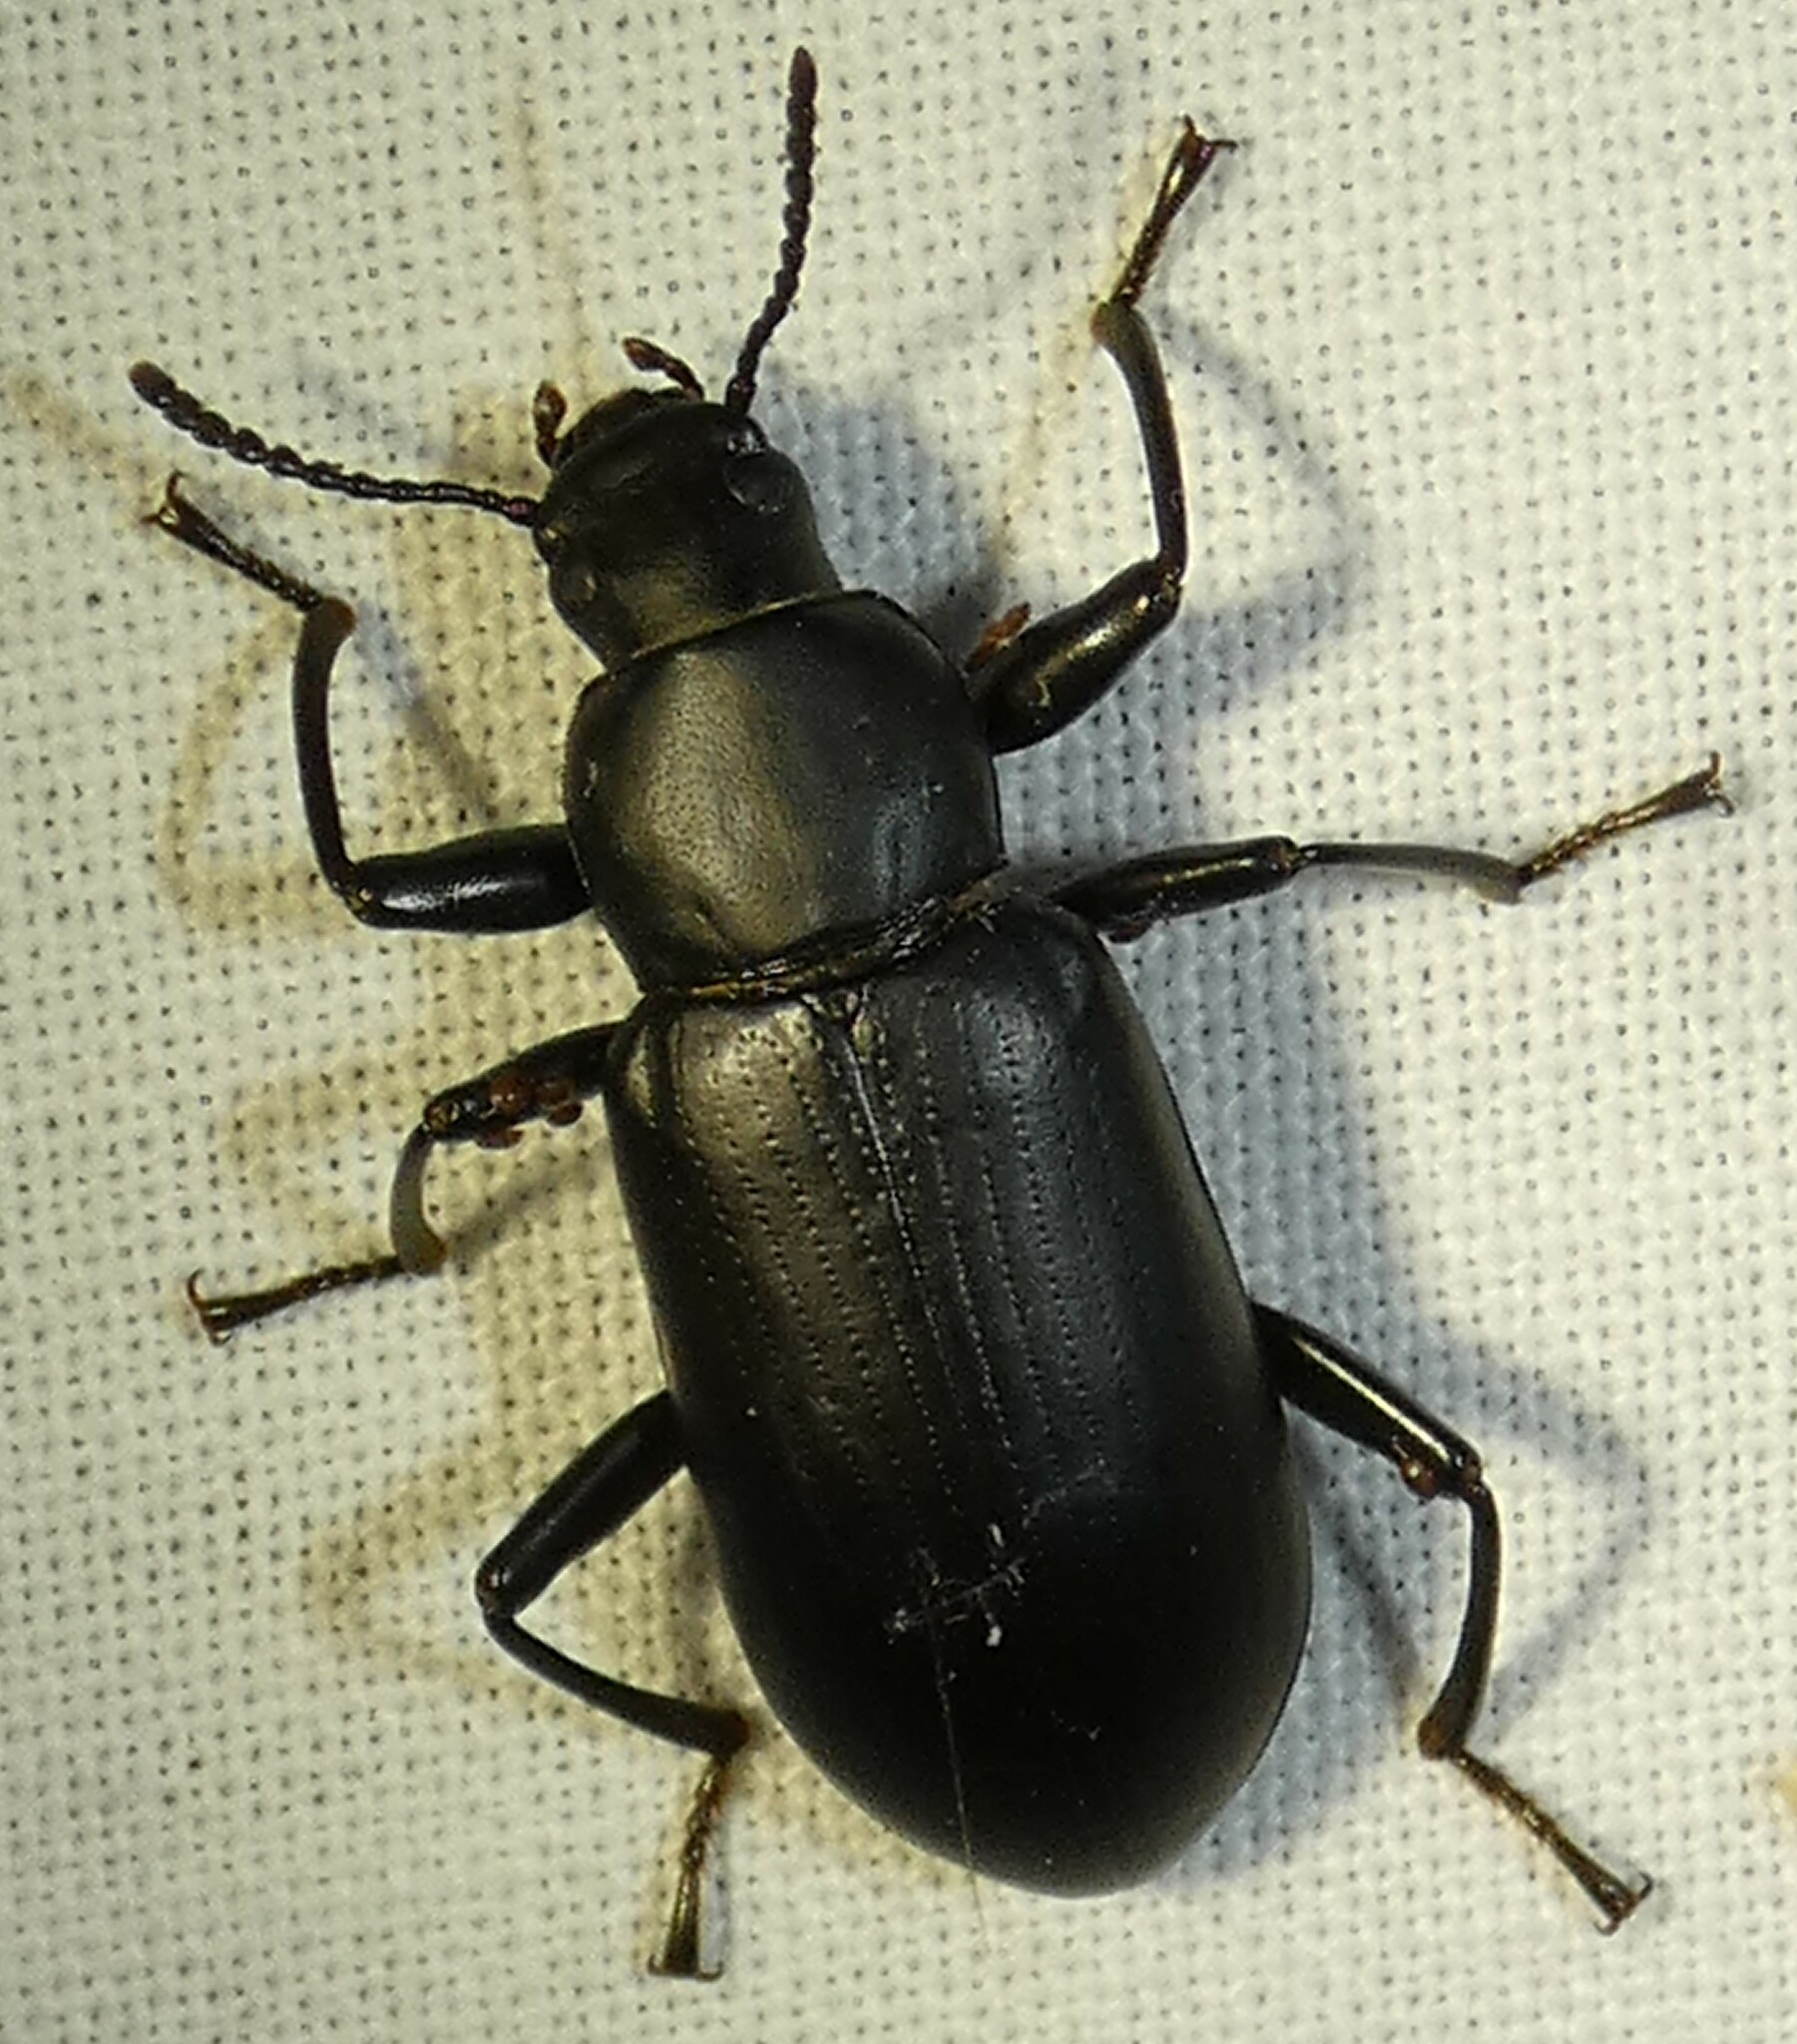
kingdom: Animalia
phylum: Arthropoda
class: Insecta
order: Coleoptera
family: Tenebrionidae
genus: Alobates
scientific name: Alobates
